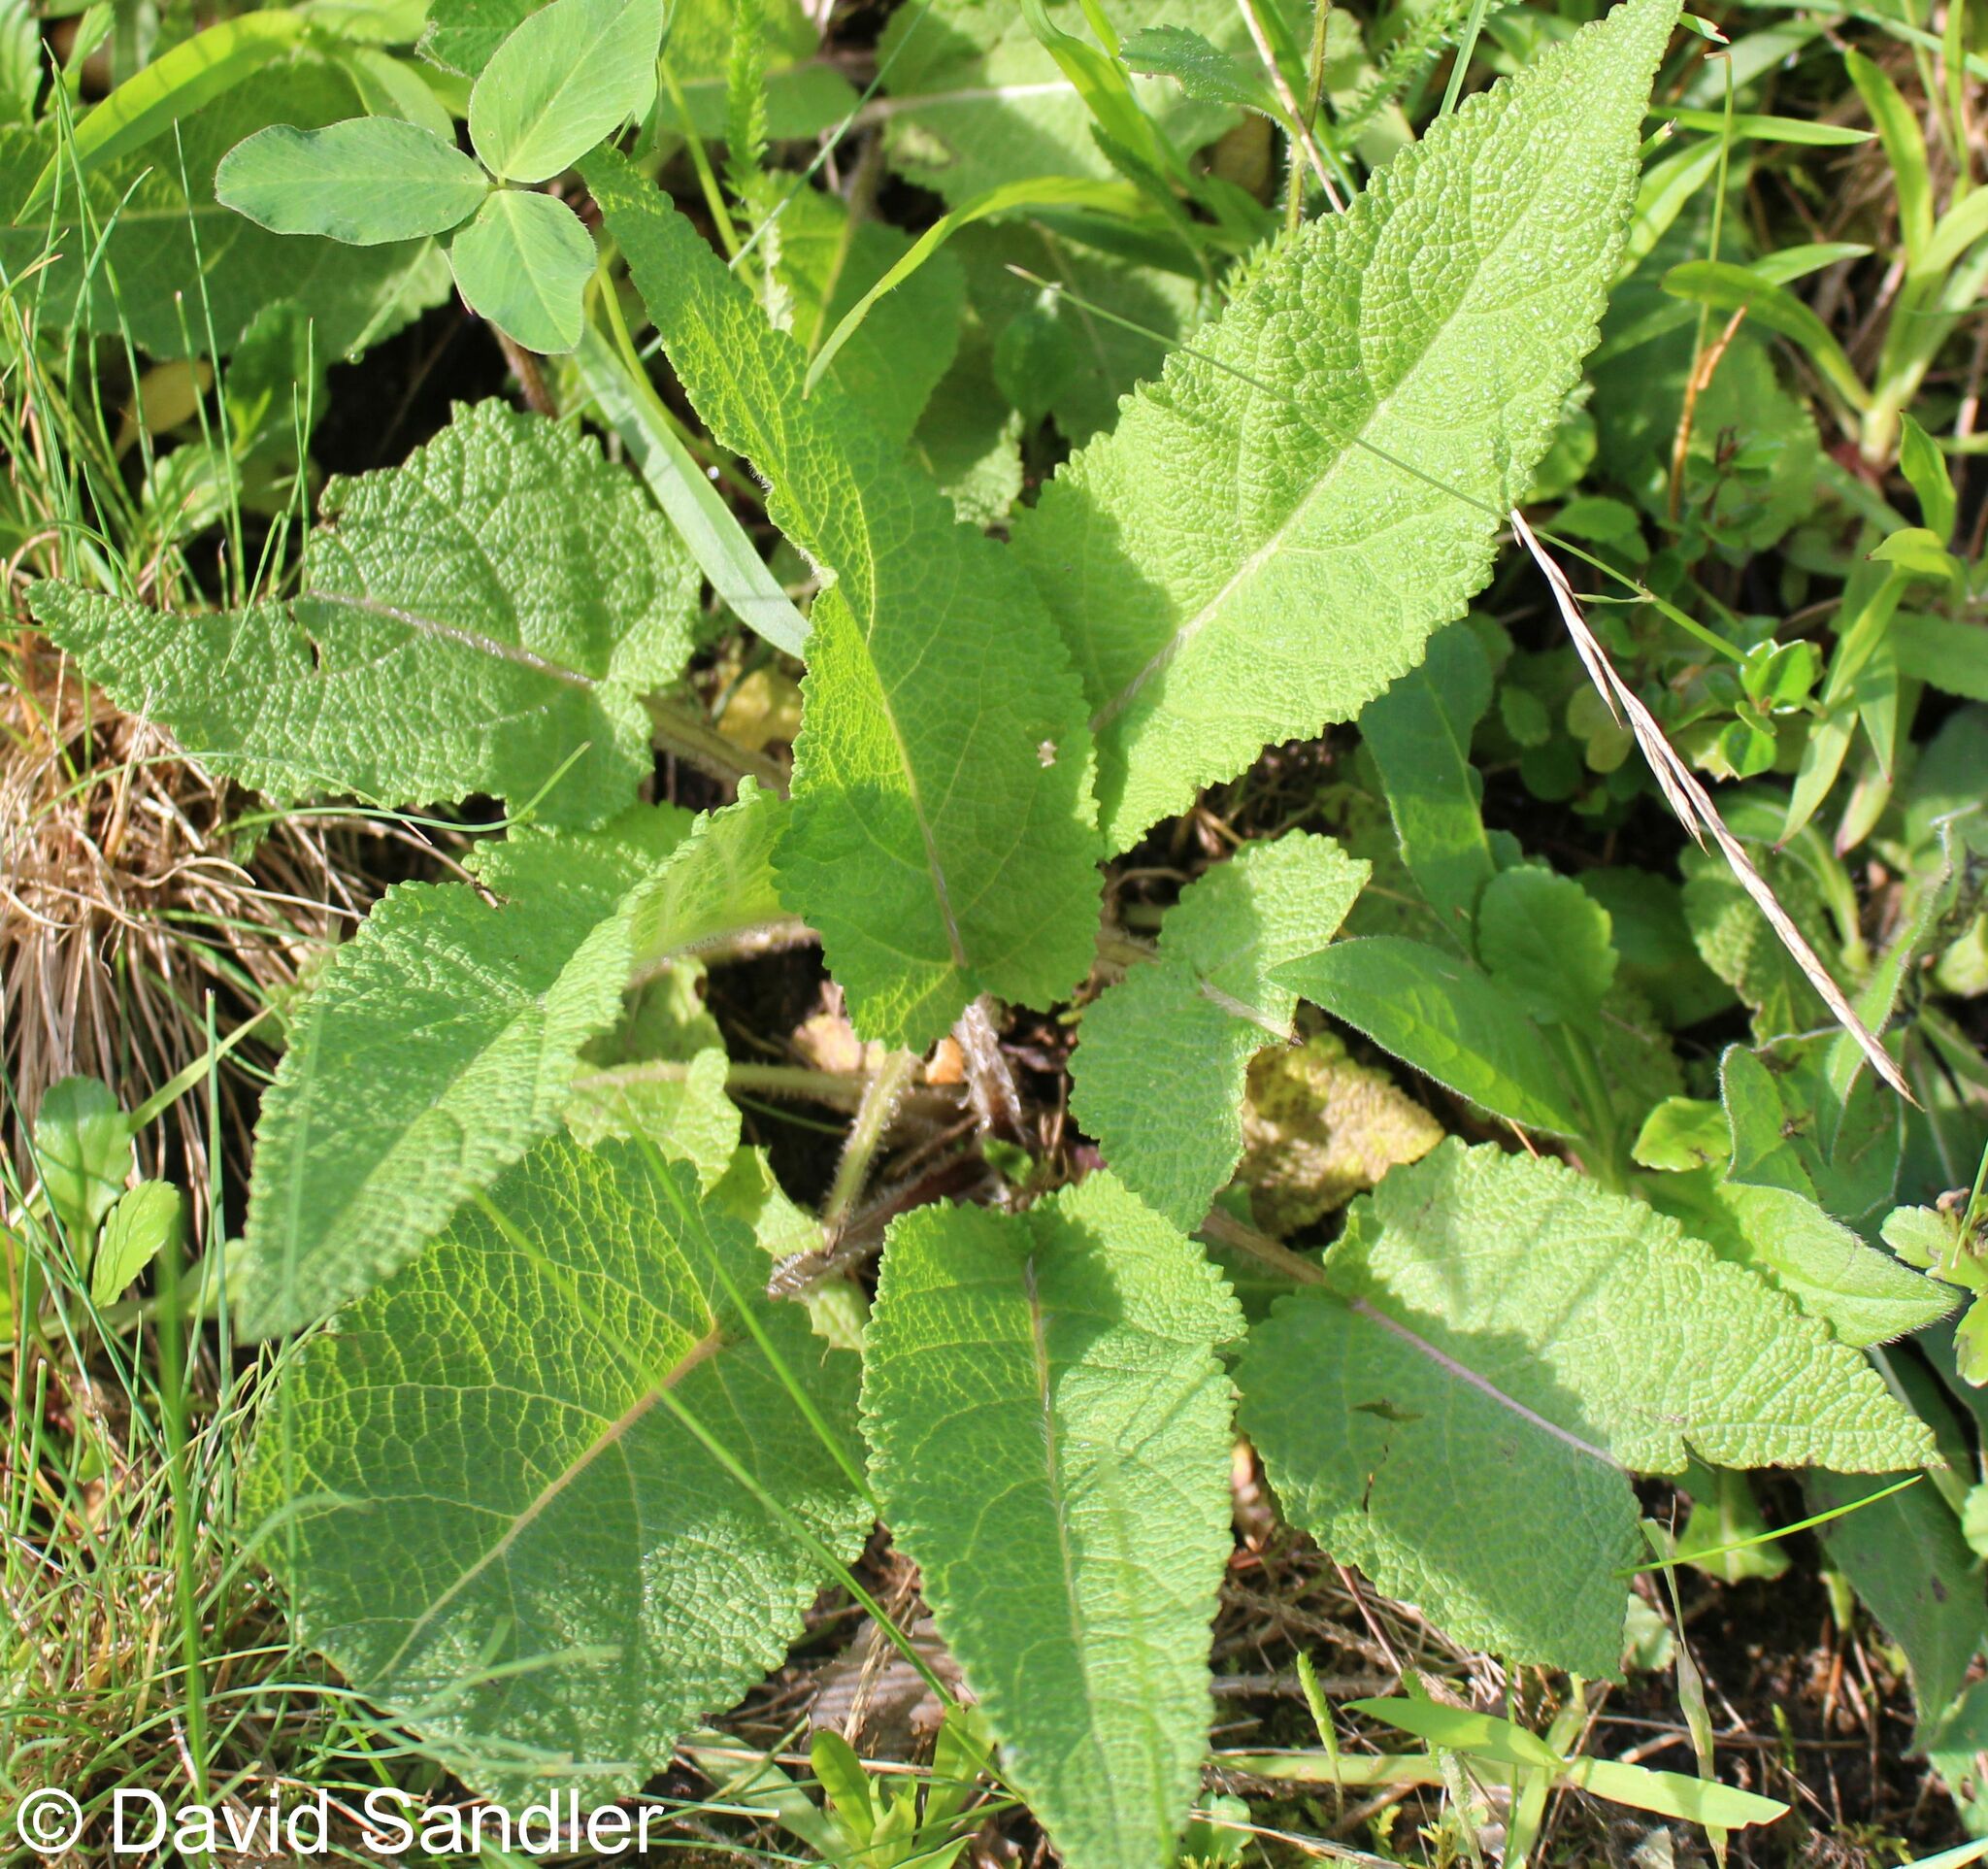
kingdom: Plantae
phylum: Tracheophyta
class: Magnoliopsida
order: Lamiales
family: Lamiaceae
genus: Salvia
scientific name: Salvia pratensis
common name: Meadow sage
